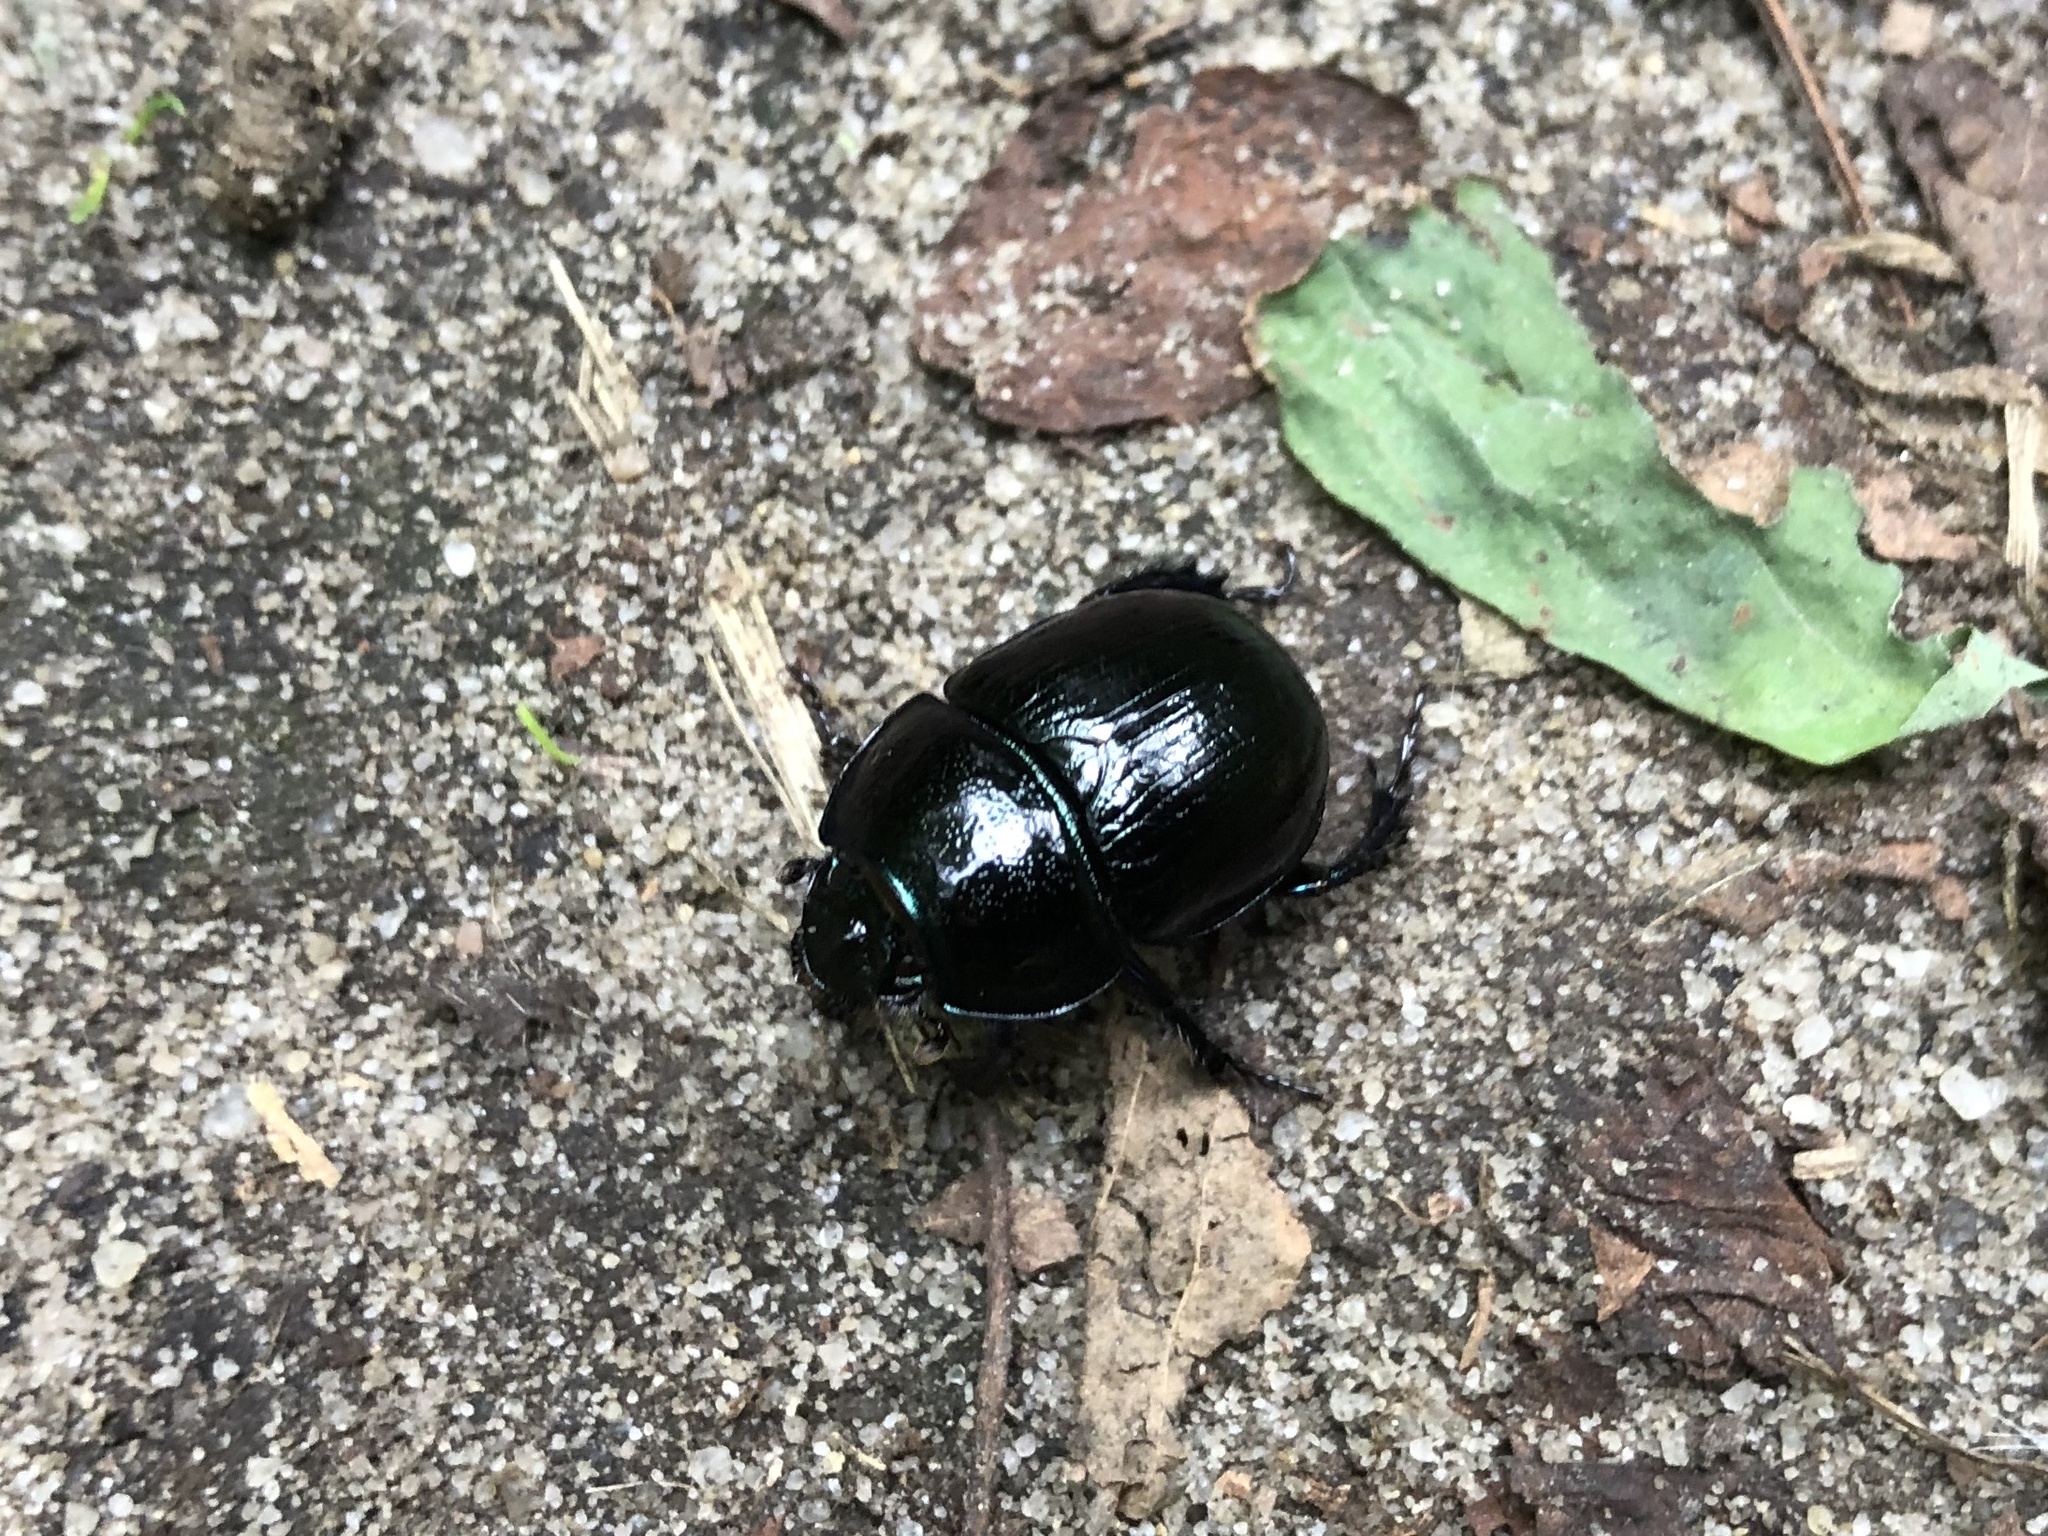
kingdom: Animalia
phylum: Arthropoda
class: Insecta
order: Coleoptera
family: Geotrupidae
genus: Anoplotrupes
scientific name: Anoplotrupes stercorosus
